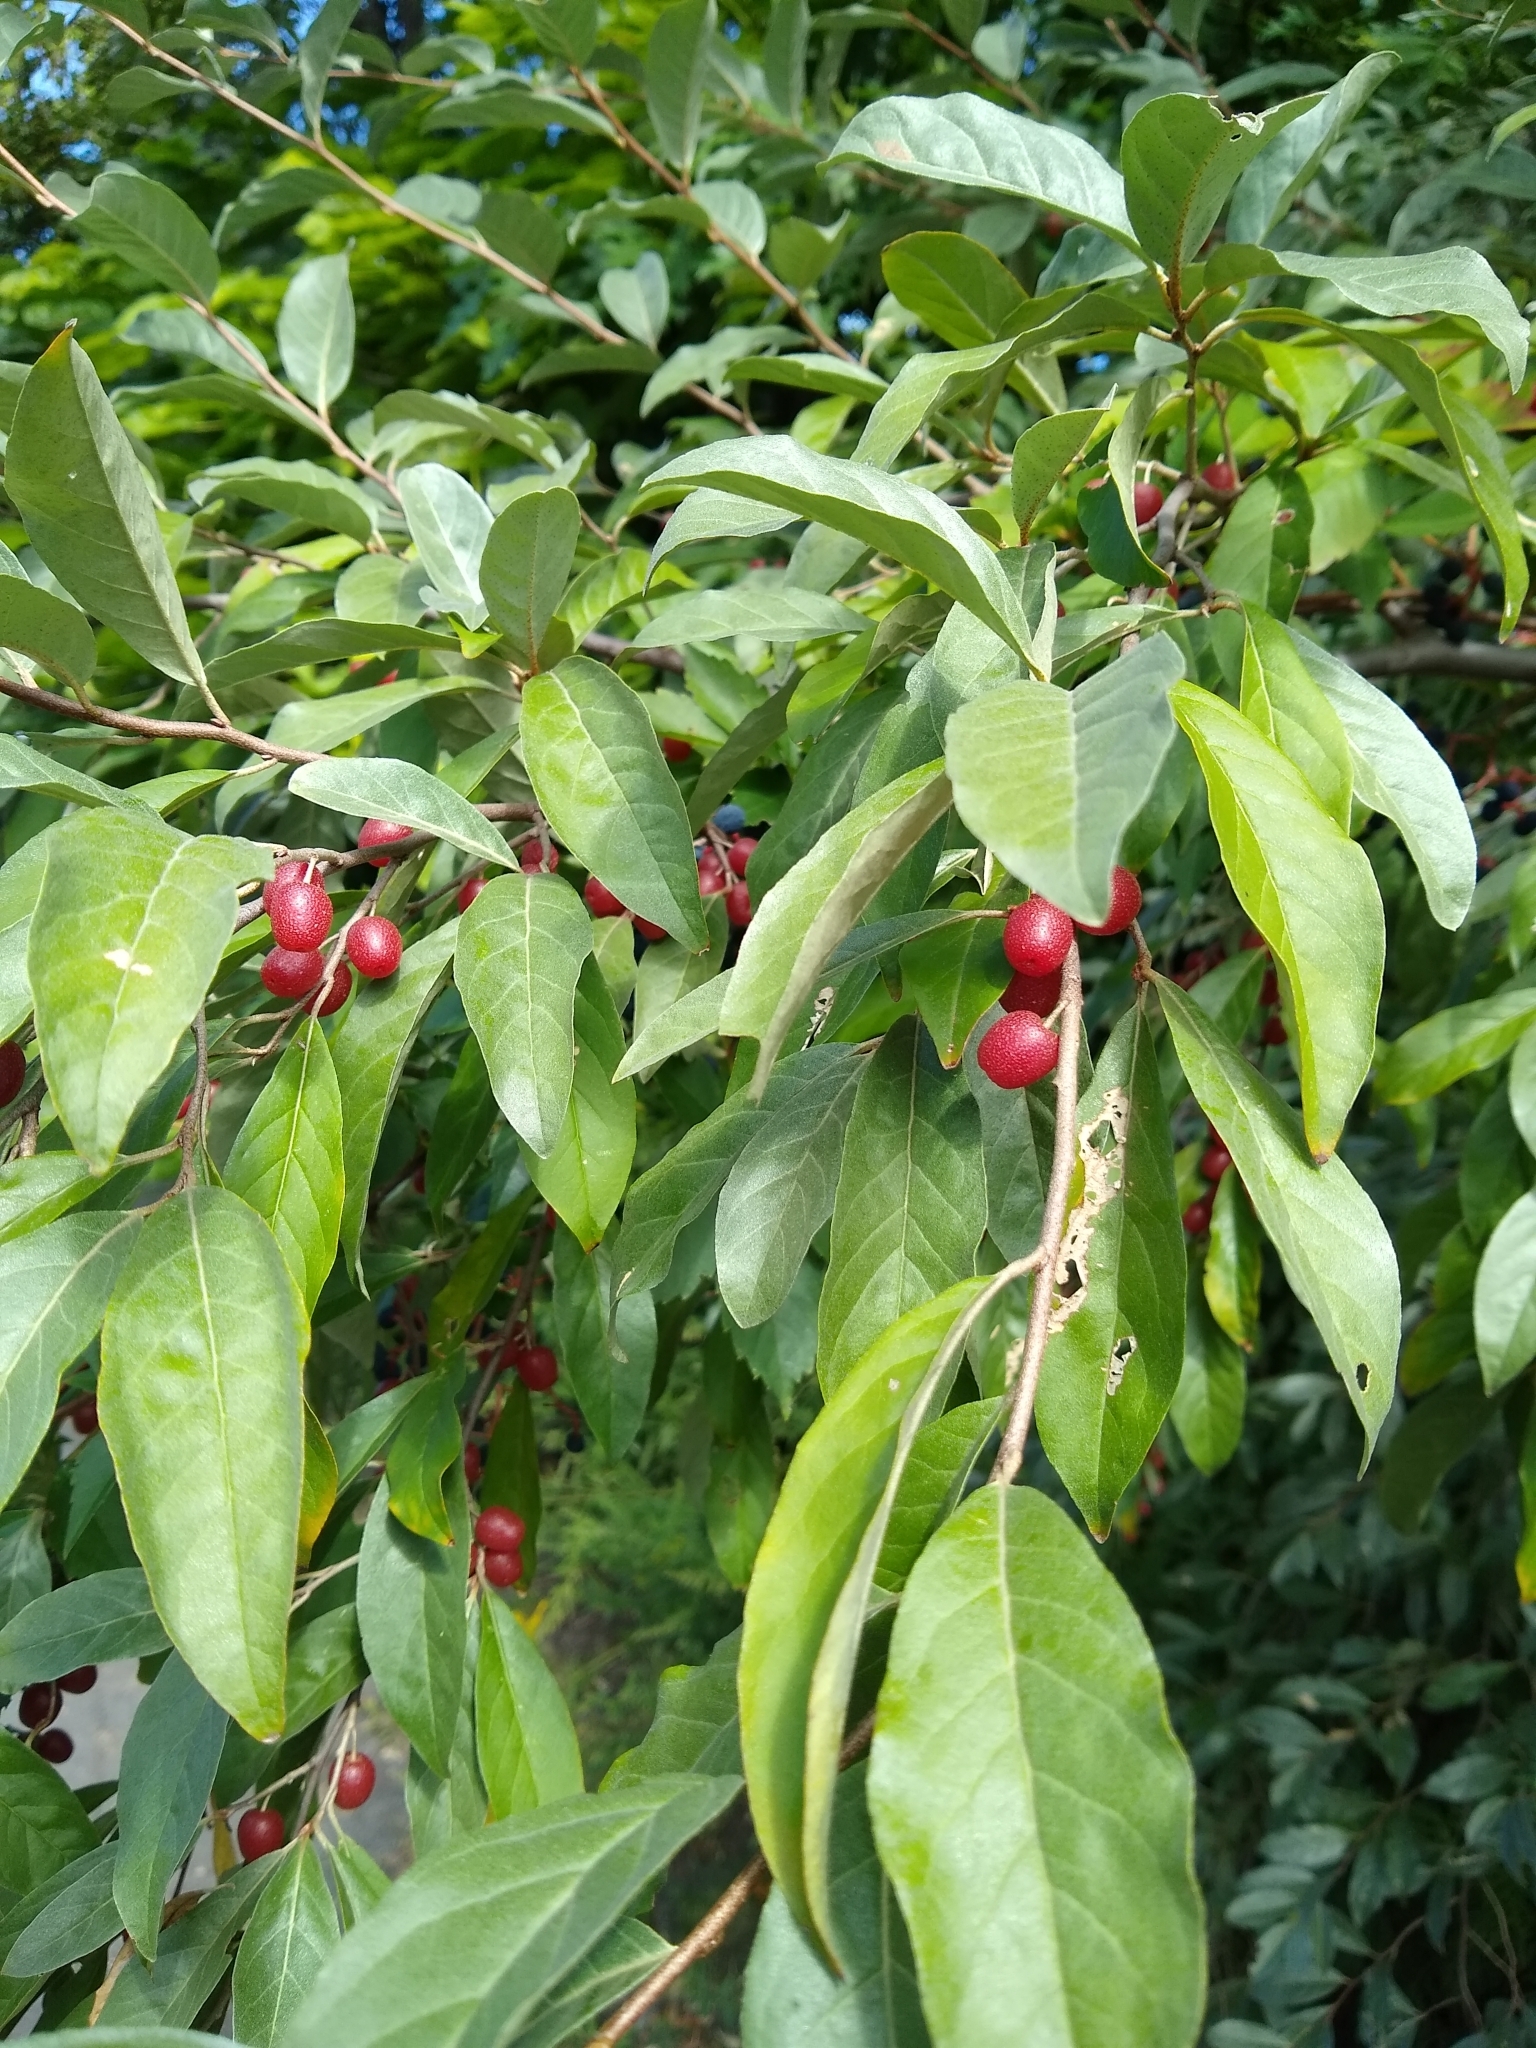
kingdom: Plantae
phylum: Tracheophyta
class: Magnoliopsida
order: Rosales
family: Elaeagnaceae
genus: Elaeagnus
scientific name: Elaeagnus umbellata
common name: Autumn olive
